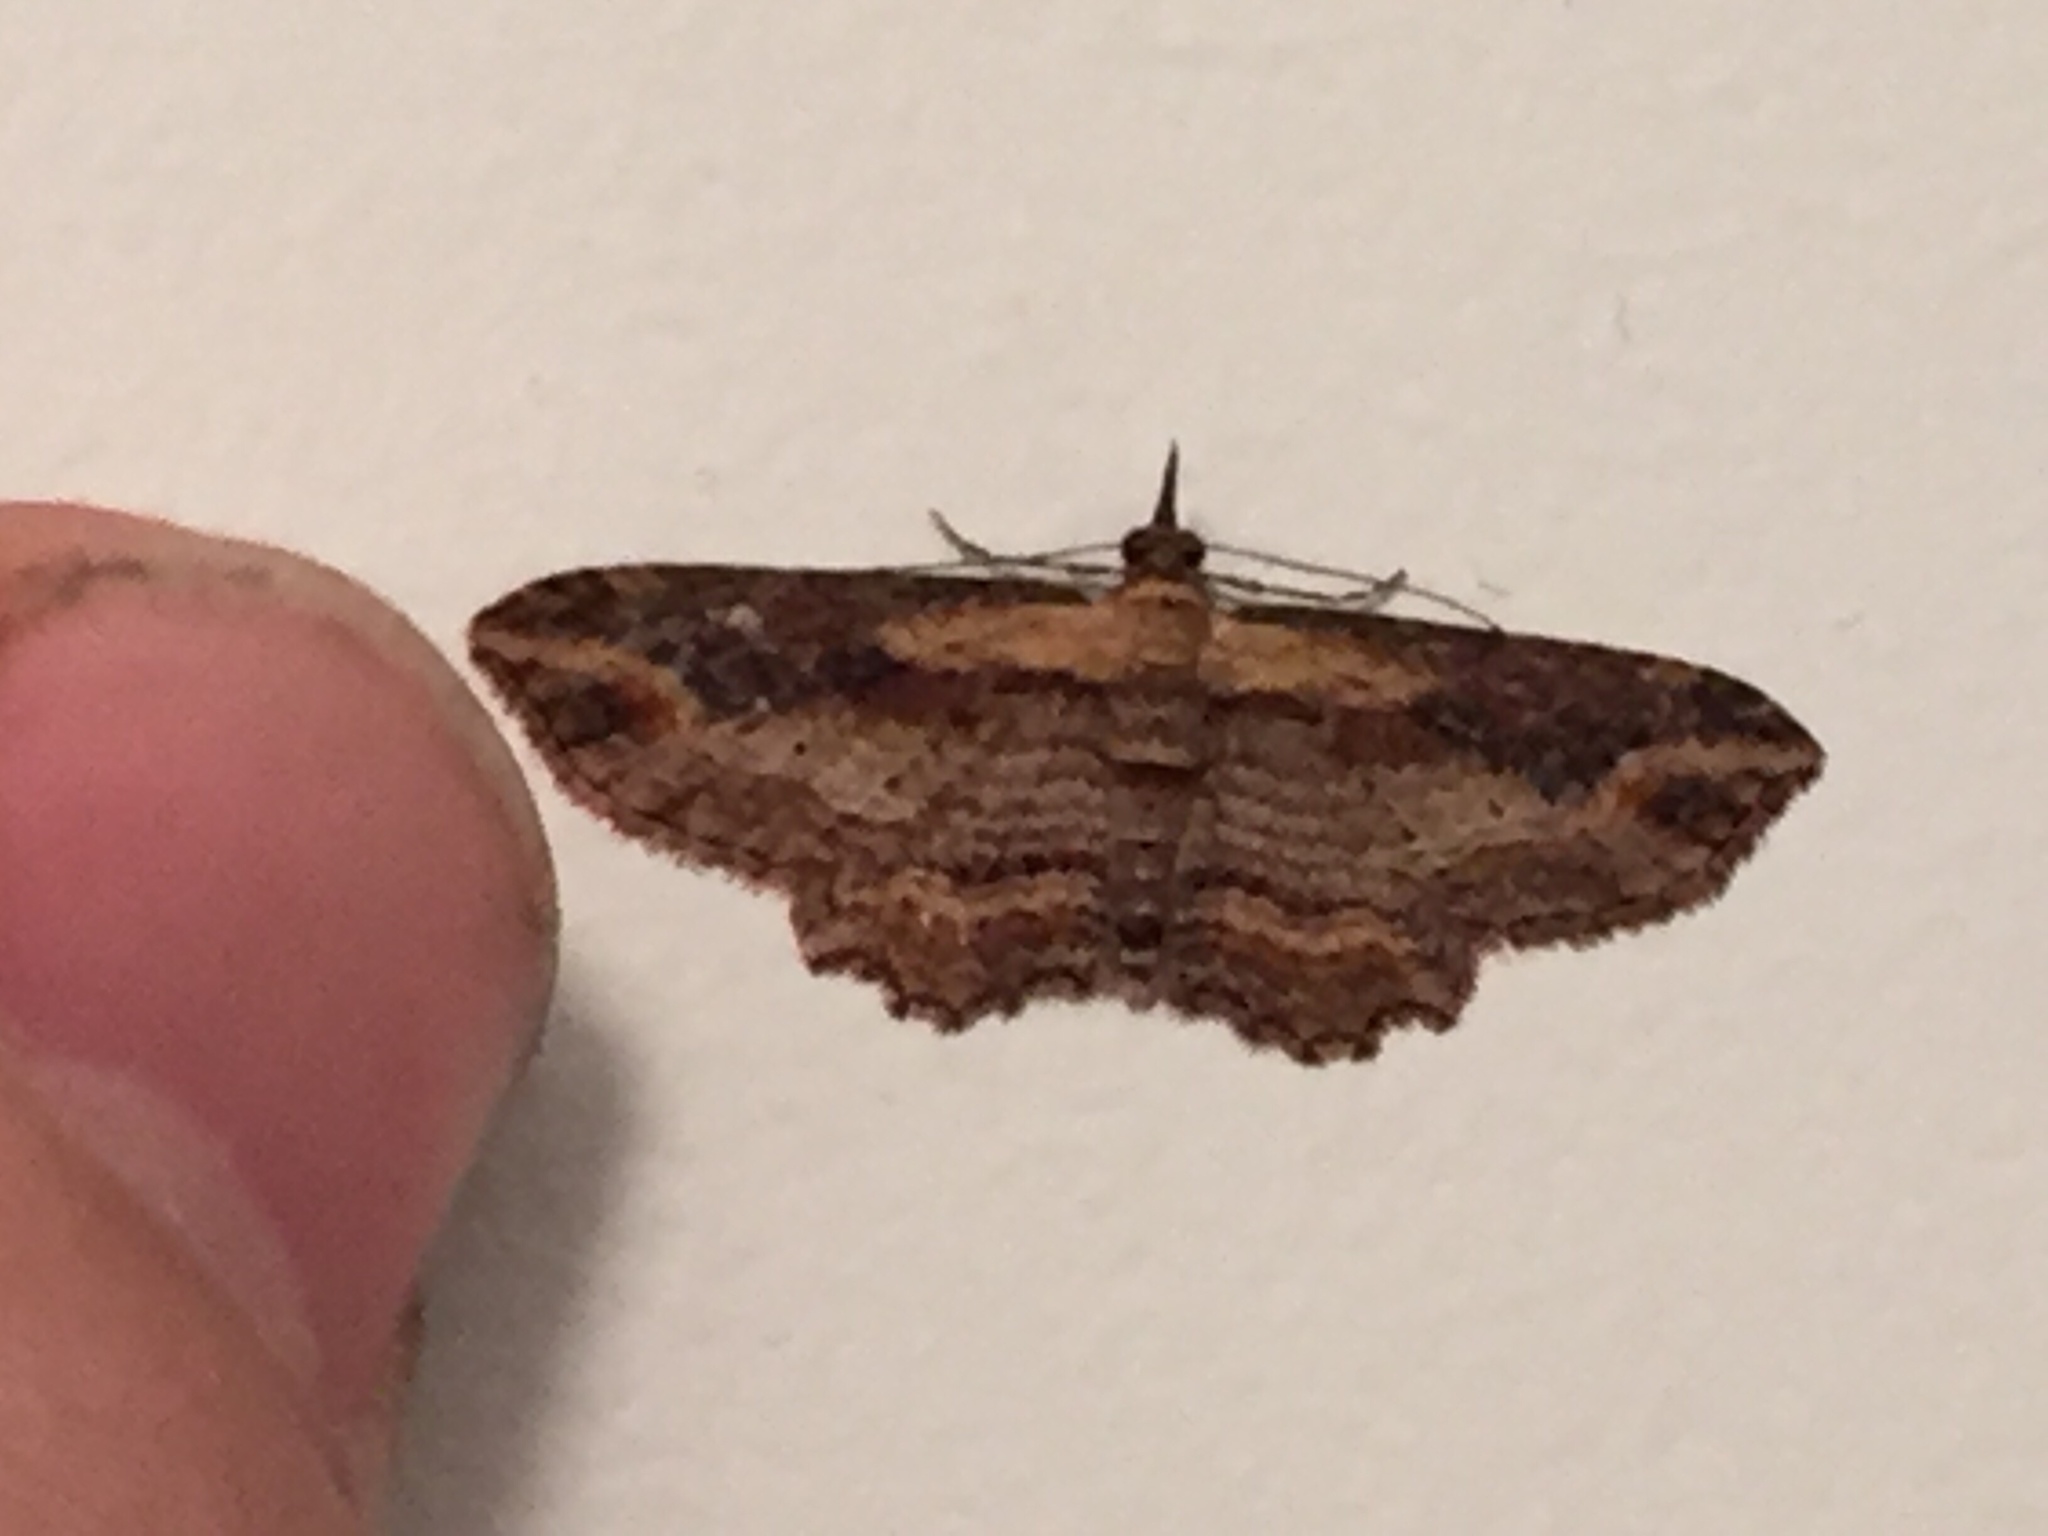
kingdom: Animalia
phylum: Arthropoda
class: Insecta
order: Lepidoptera
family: Geometridae
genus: Chloroclystis
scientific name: Chloroclystis filata
